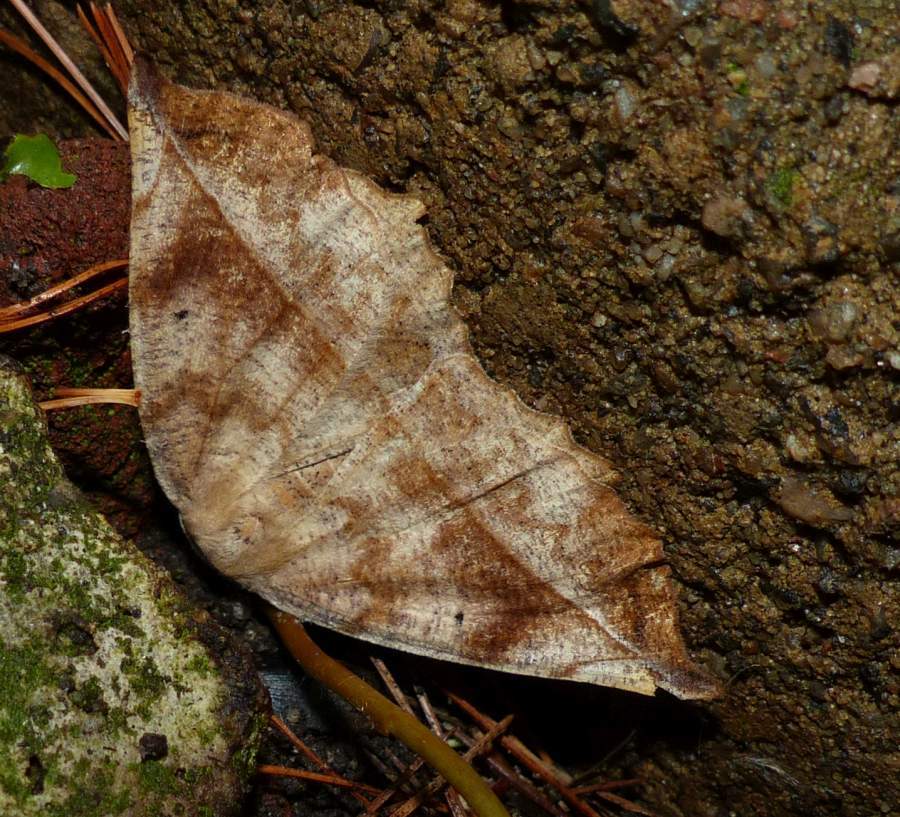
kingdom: Animalia
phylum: Arthropoda
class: Insecta
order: Lepidoptera
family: Geometridae
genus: Eutrapela
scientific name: Eutrapela clemataria
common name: Curved-toothed geometer
